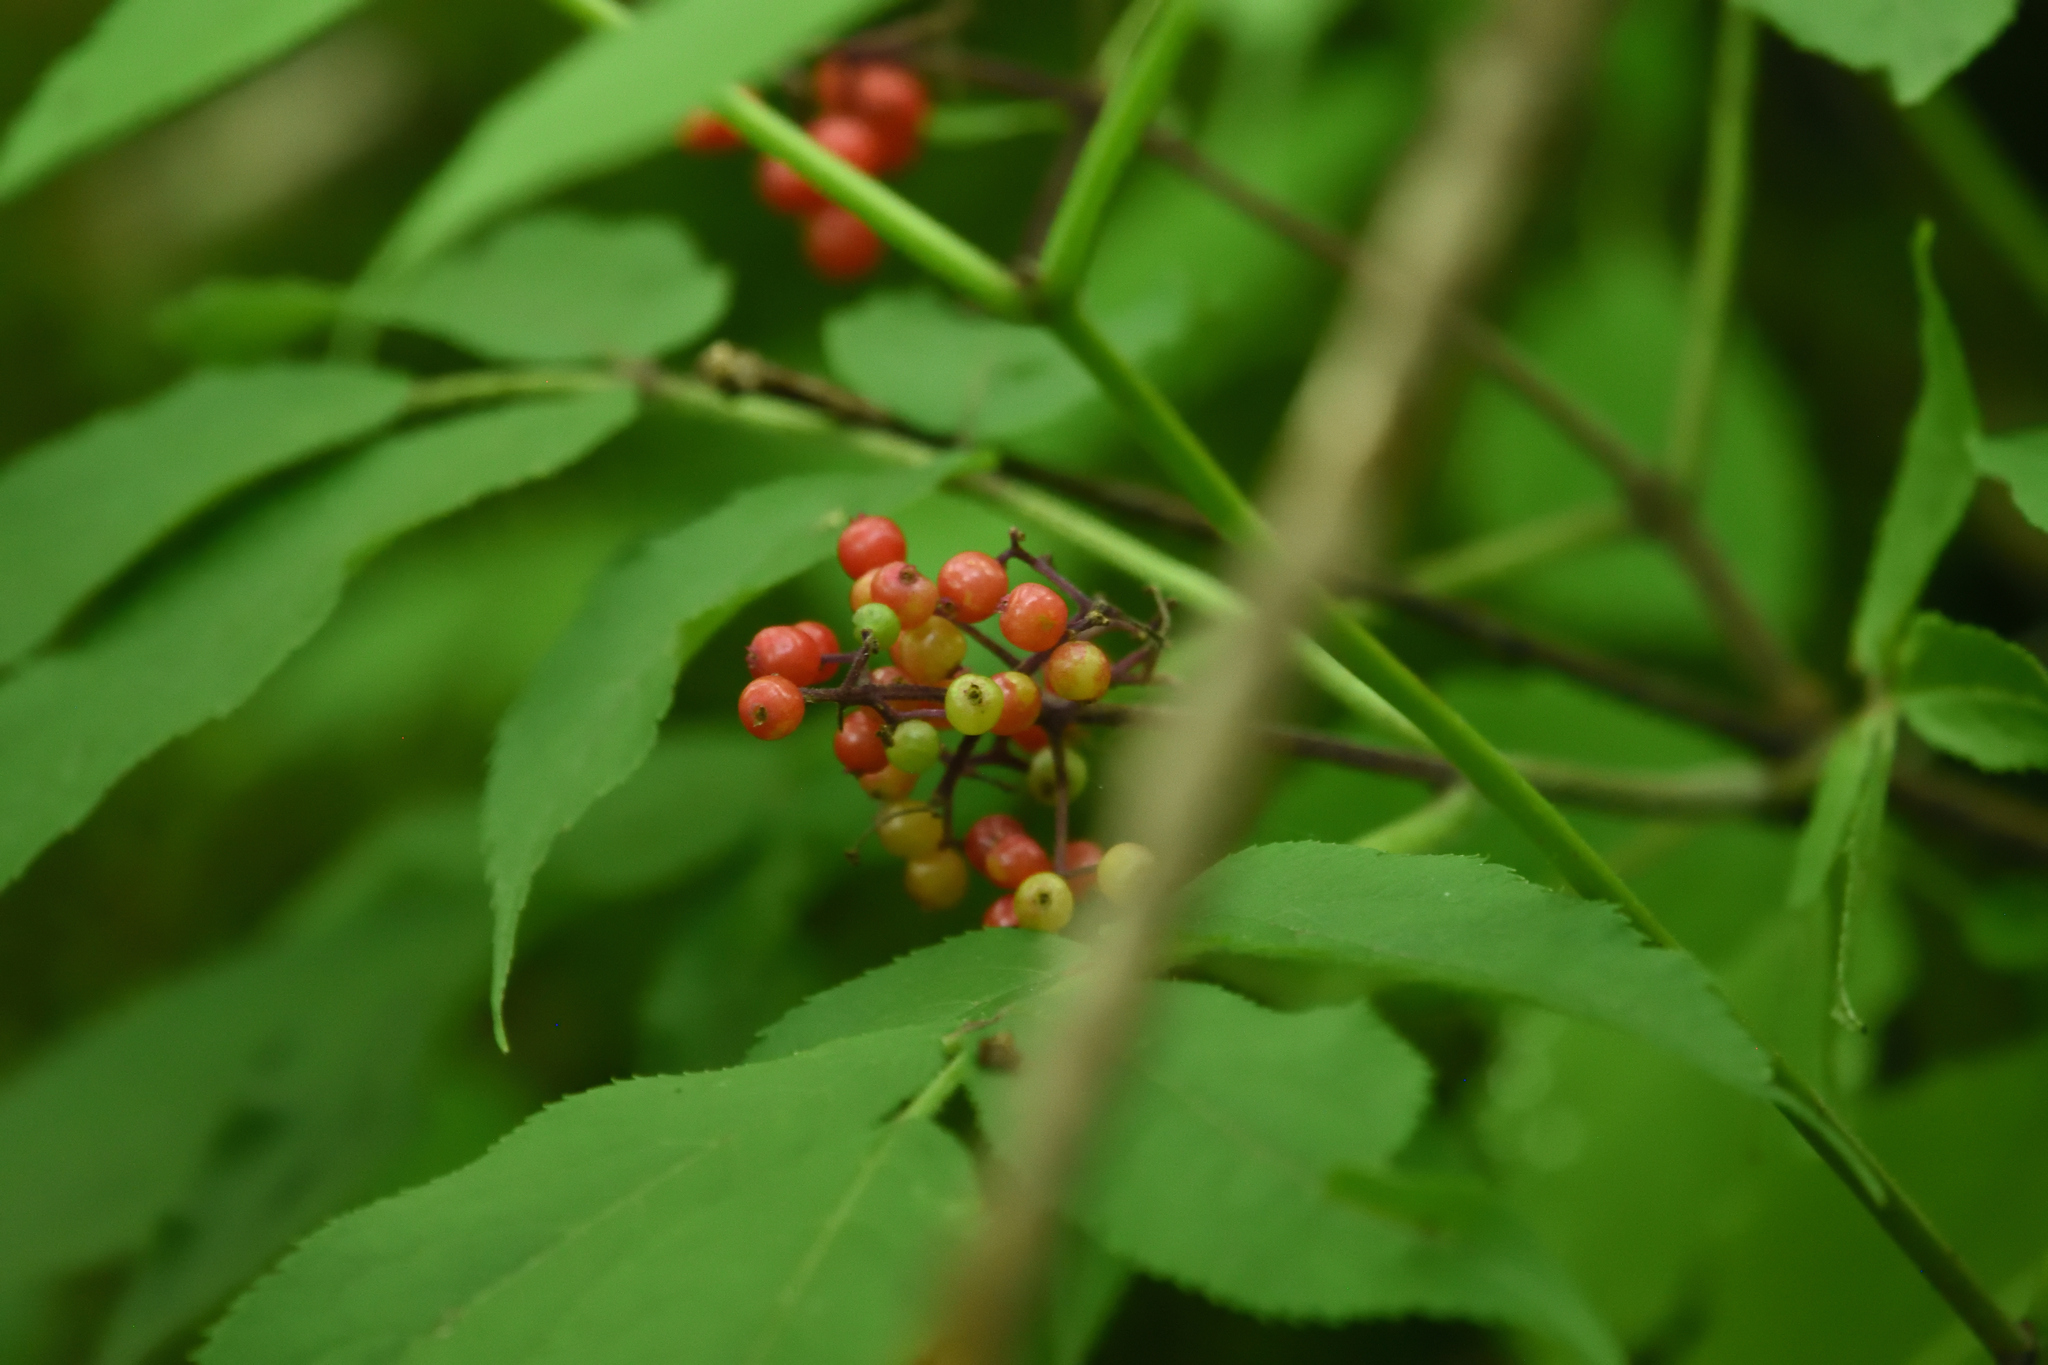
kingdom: Plantae
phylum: Tracheophyta
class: Magnoliopsida
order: Dipsacales
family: Viburnaceae
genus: Sambucus
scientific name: Sambucus racemosa
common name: Red-berried elder
